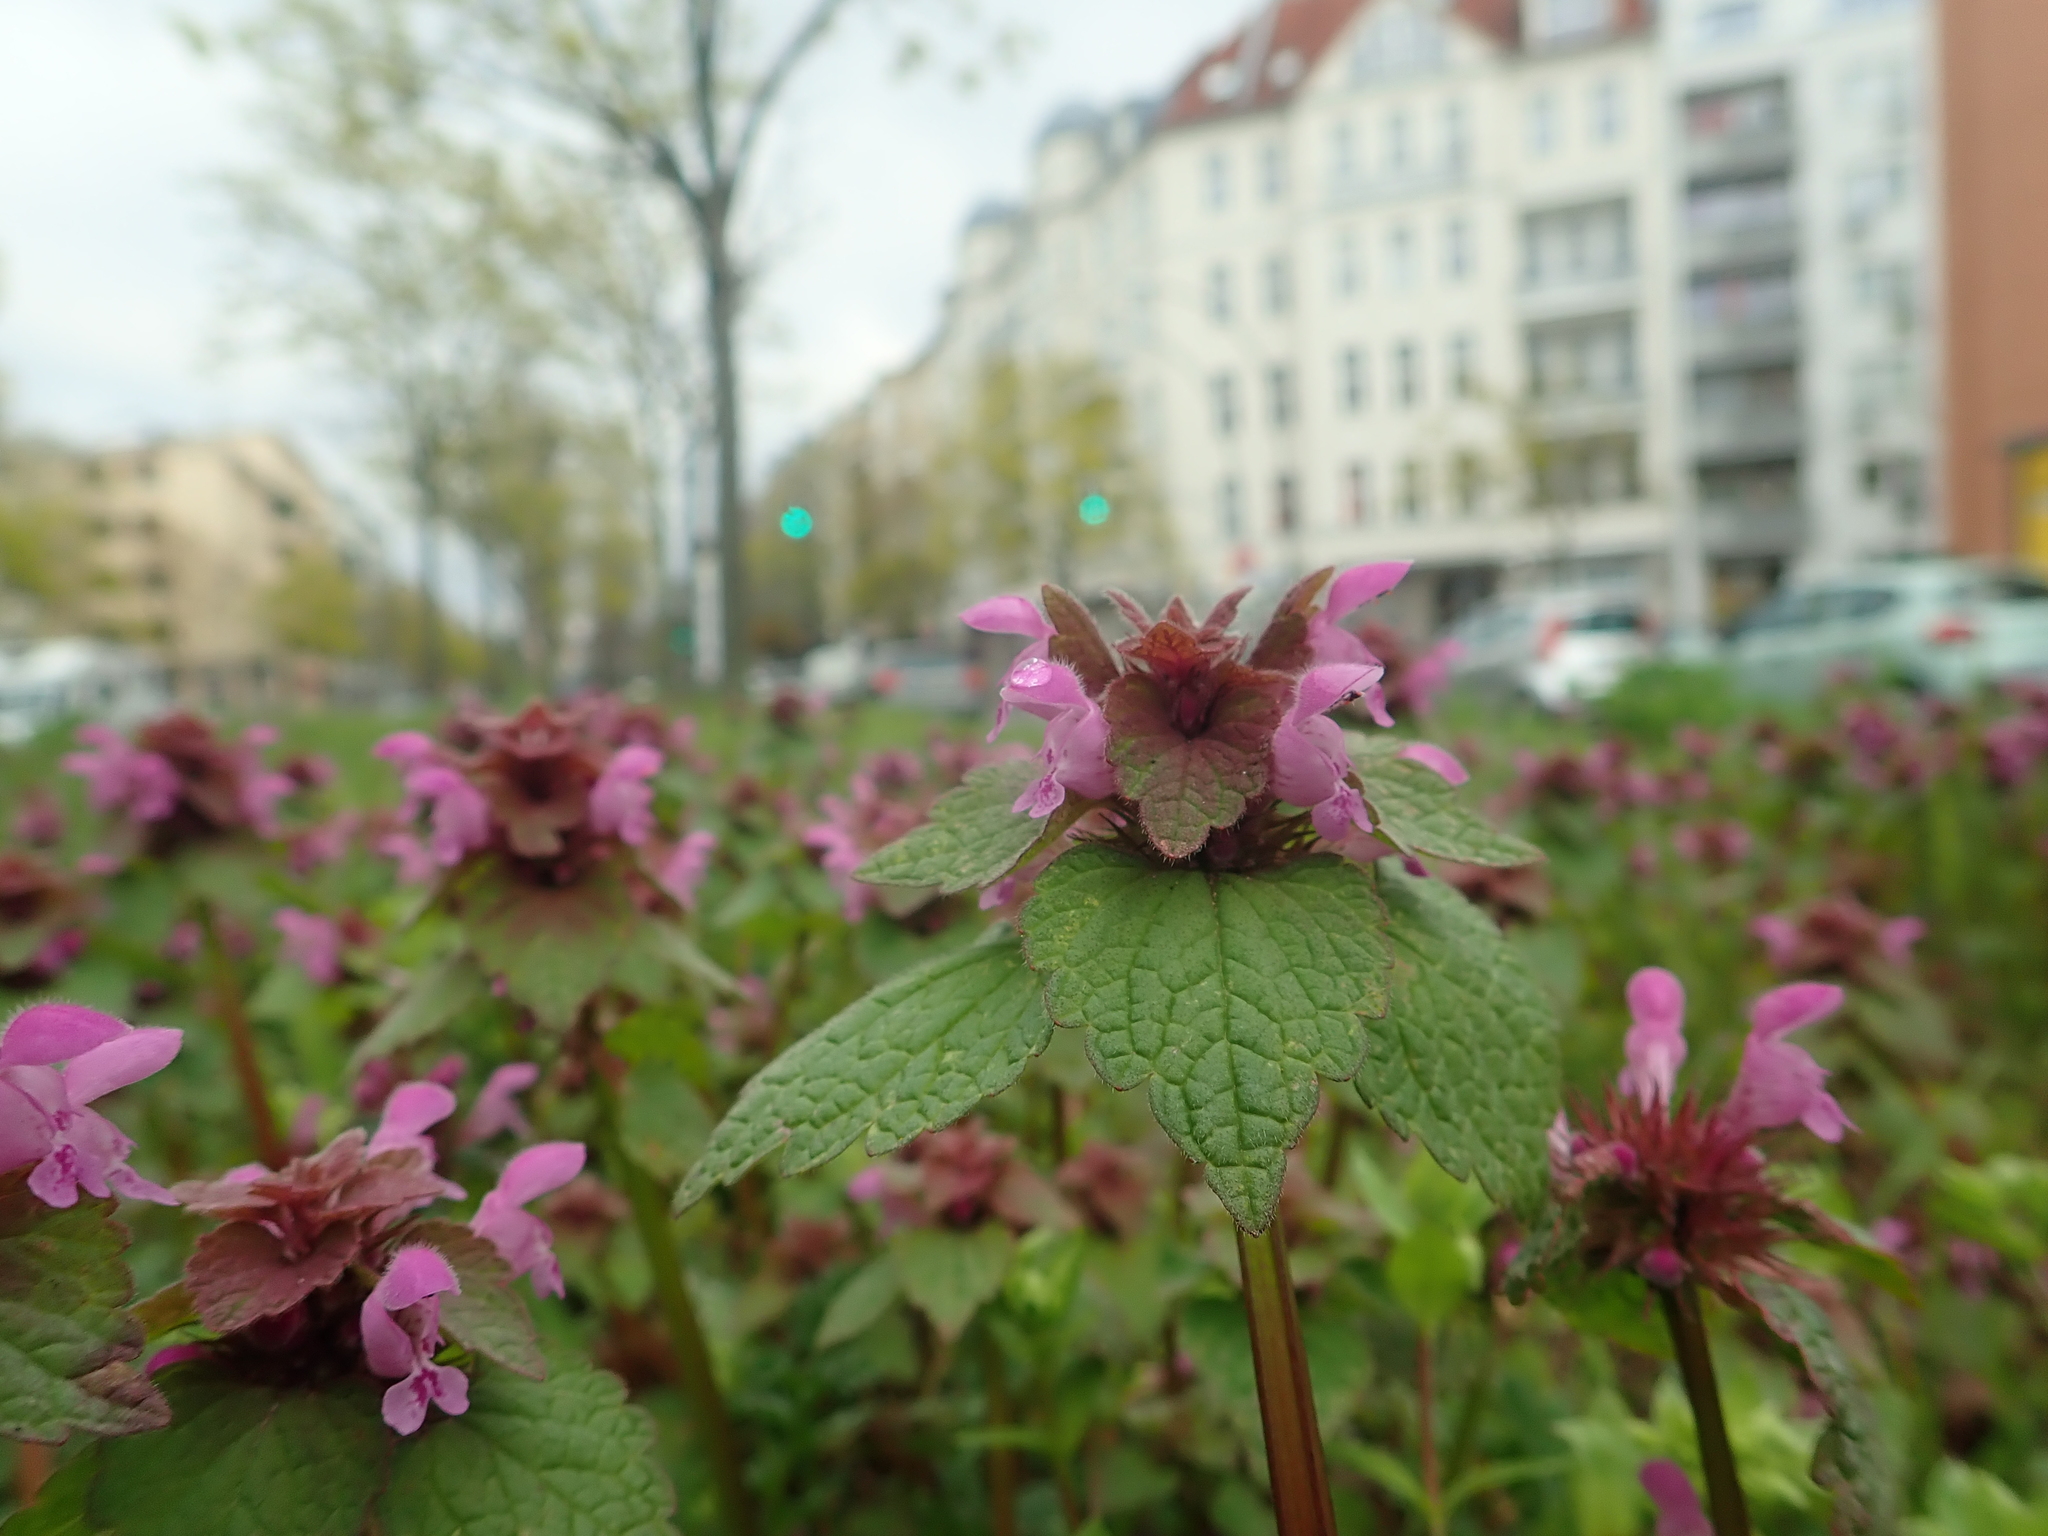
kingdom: Plantae
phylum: Tracheophyta
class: Magnoliopsida
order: Lamiales
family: Lamiaceae
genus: Lamium
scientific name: Lamium purpureum
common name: Red dead-nettle
